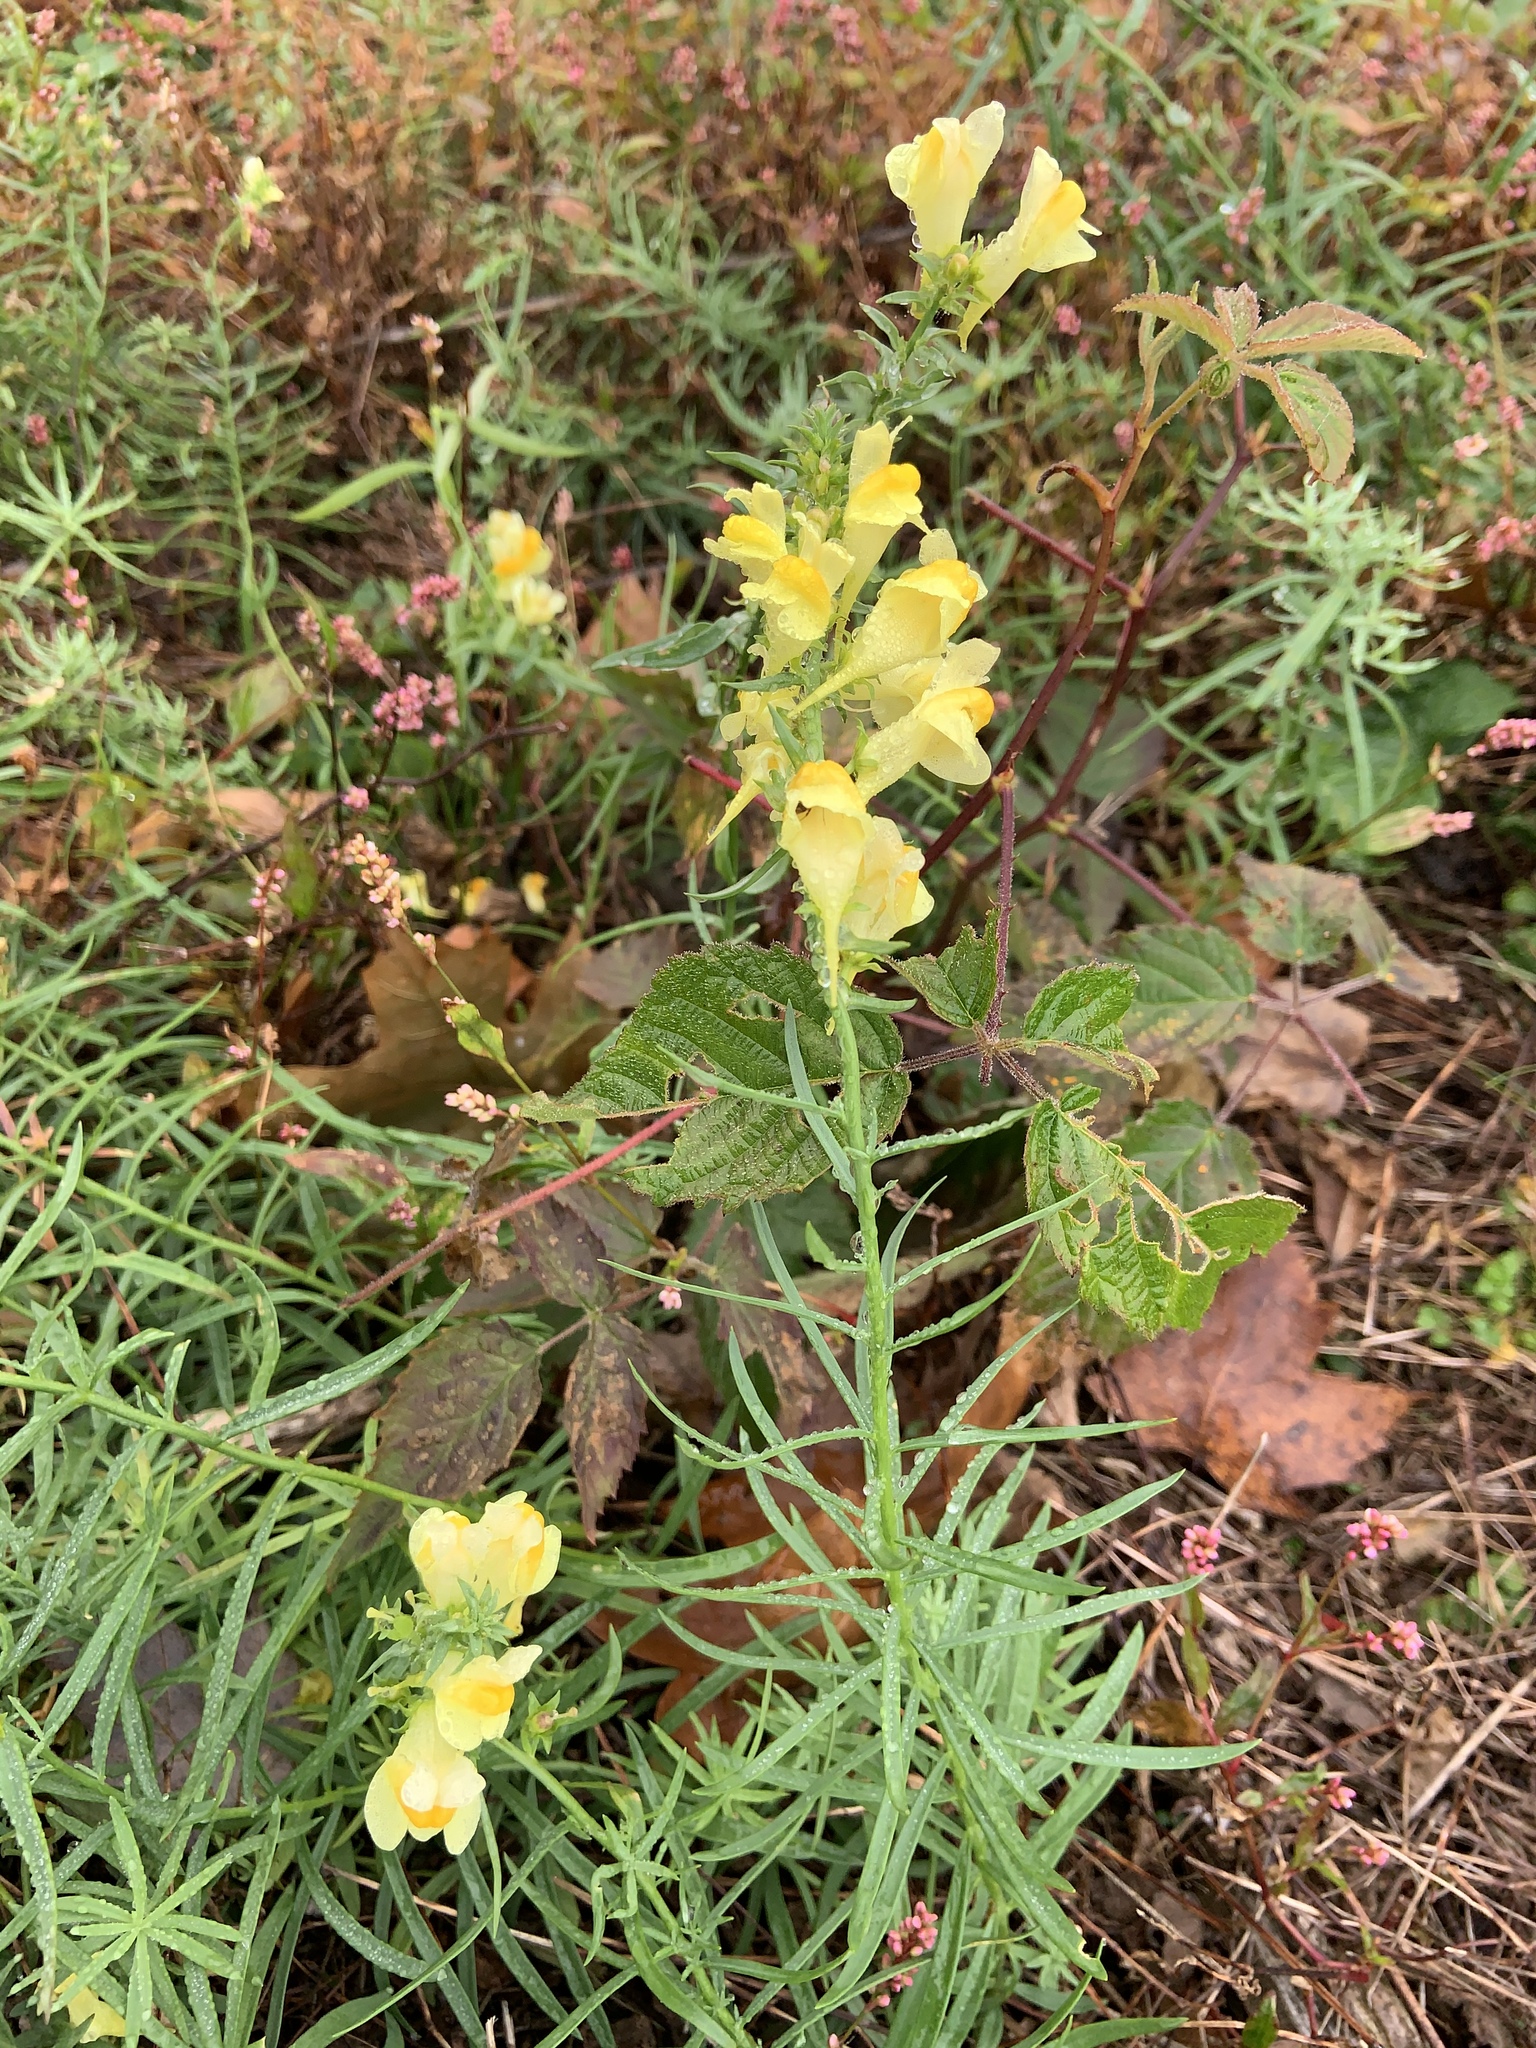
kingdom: Plantae
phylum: Tracheophyta
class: Magnoliopsida
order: Lamiales
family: Plantaginaceae
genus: Linaria
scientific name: Linaria vulgaris
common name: Butter and eggs
